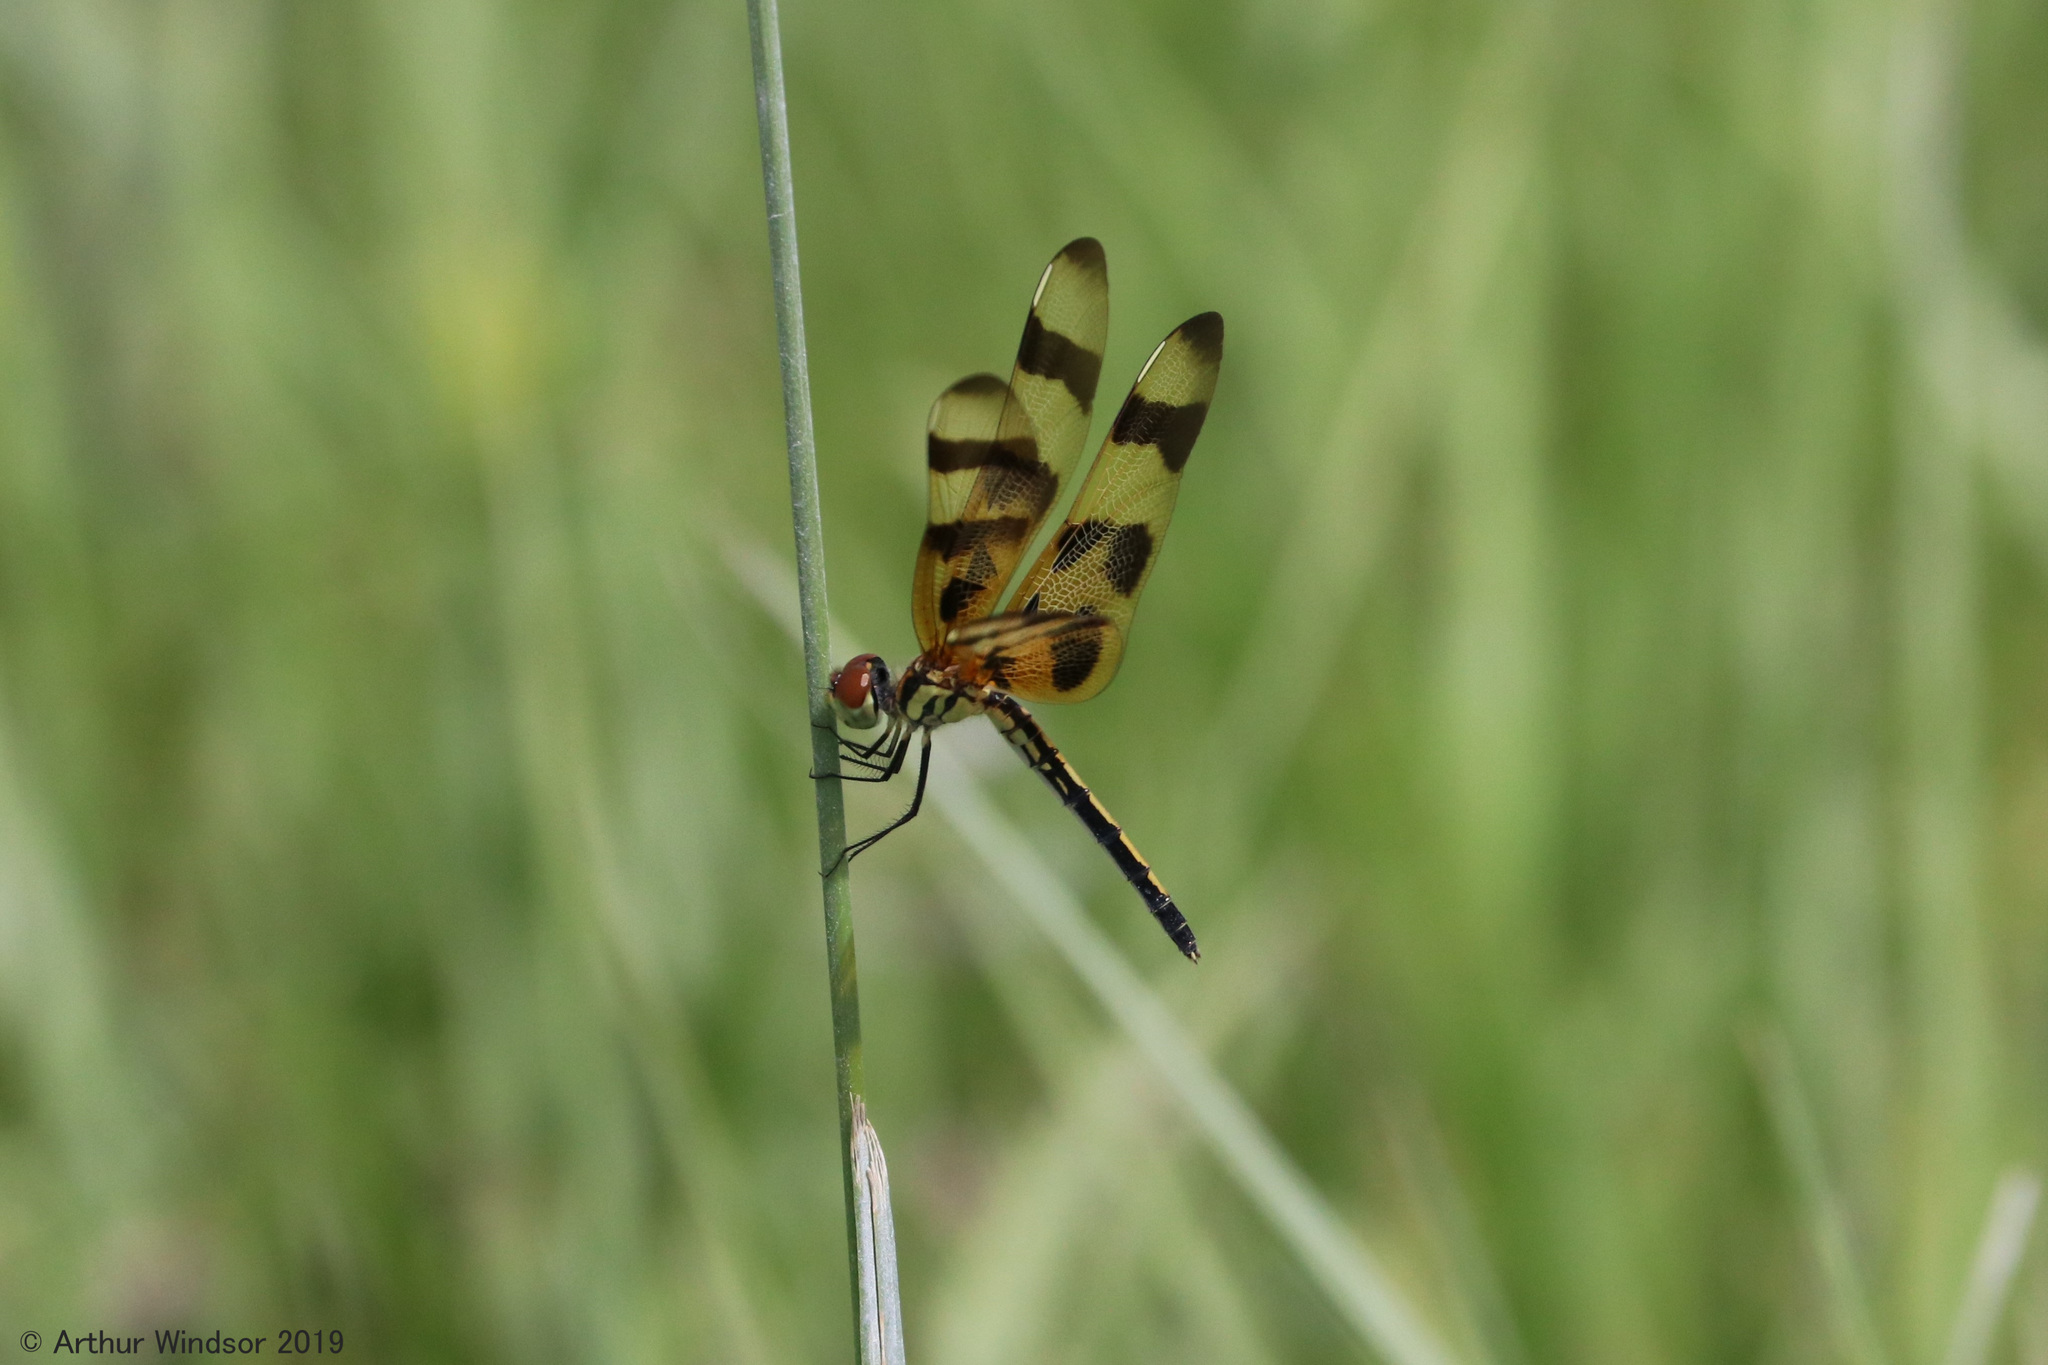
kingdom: Animalia
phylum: Arthropoda
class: Insecta
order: Odonata
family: Libellulidae
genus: Celithemis
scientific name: Celithemis eponina
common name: Halloween pennant
